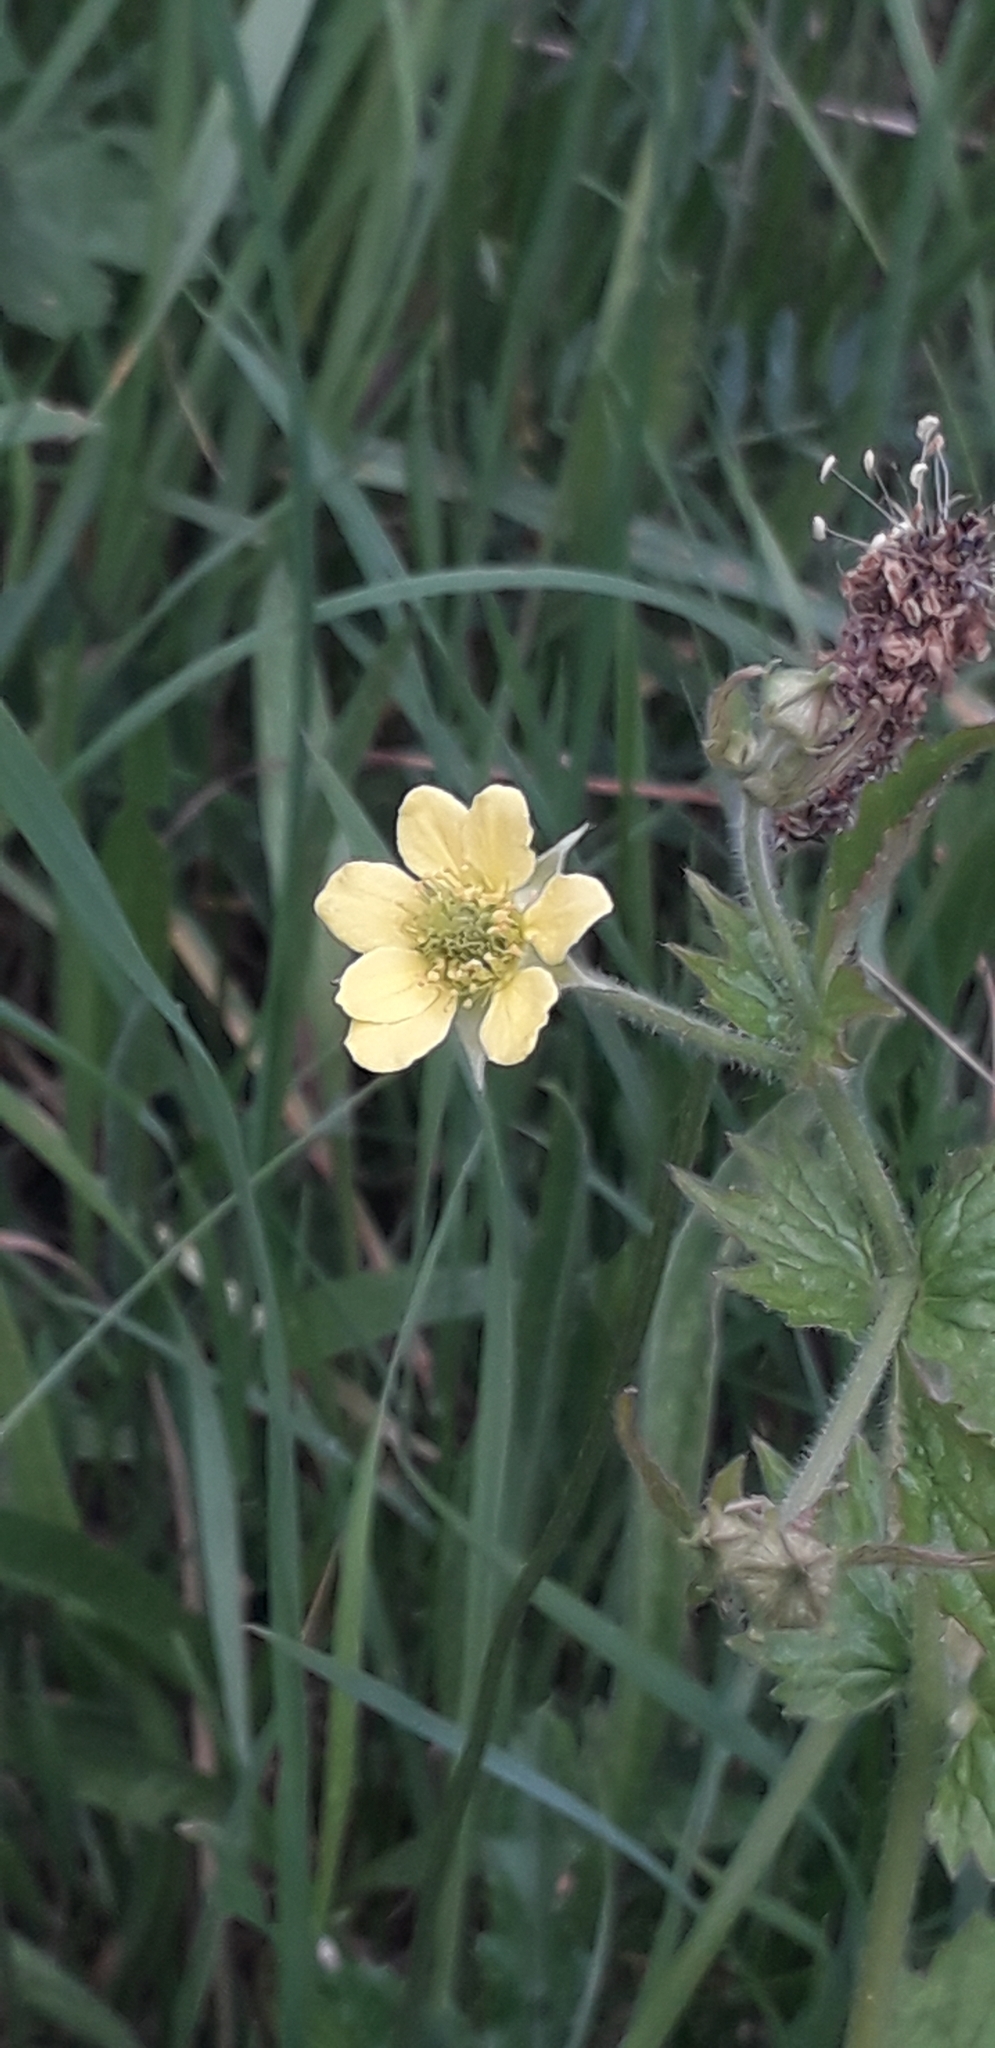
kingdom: Plantae
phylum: Tracheophyta
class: Magnoliopsida
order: Rosales
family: Rosaceae
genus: Geum
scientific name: Geum urbanum
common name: Wood avens
